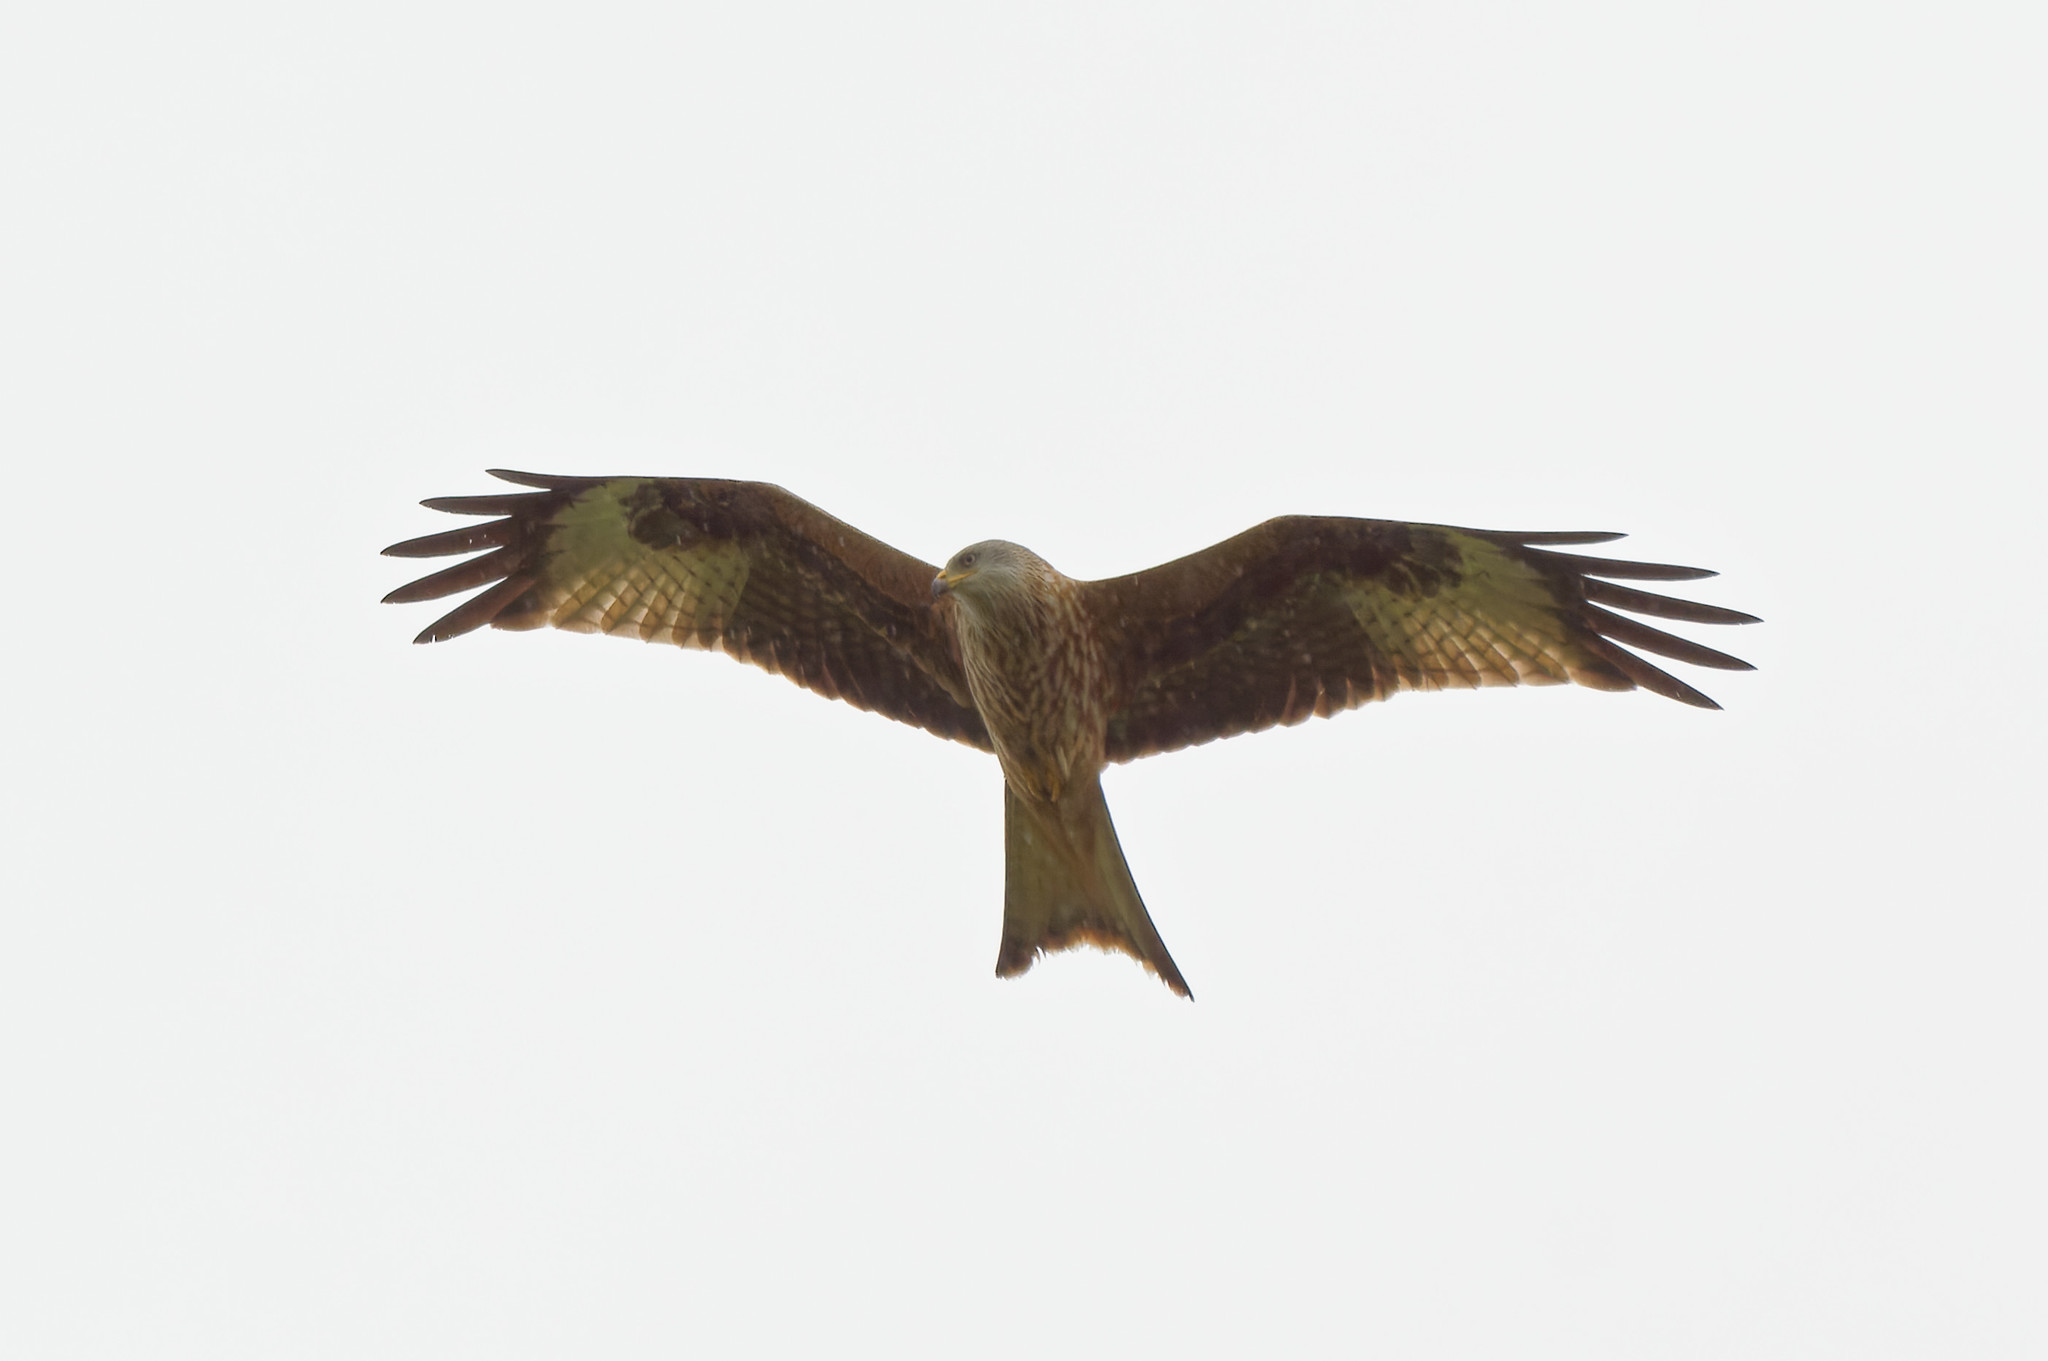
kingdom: Animalia
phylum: Chordata
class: Aves
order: Accipitriformes
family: Accipitridae
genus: Milvus
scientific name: Milvus milvus
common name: Red kite
